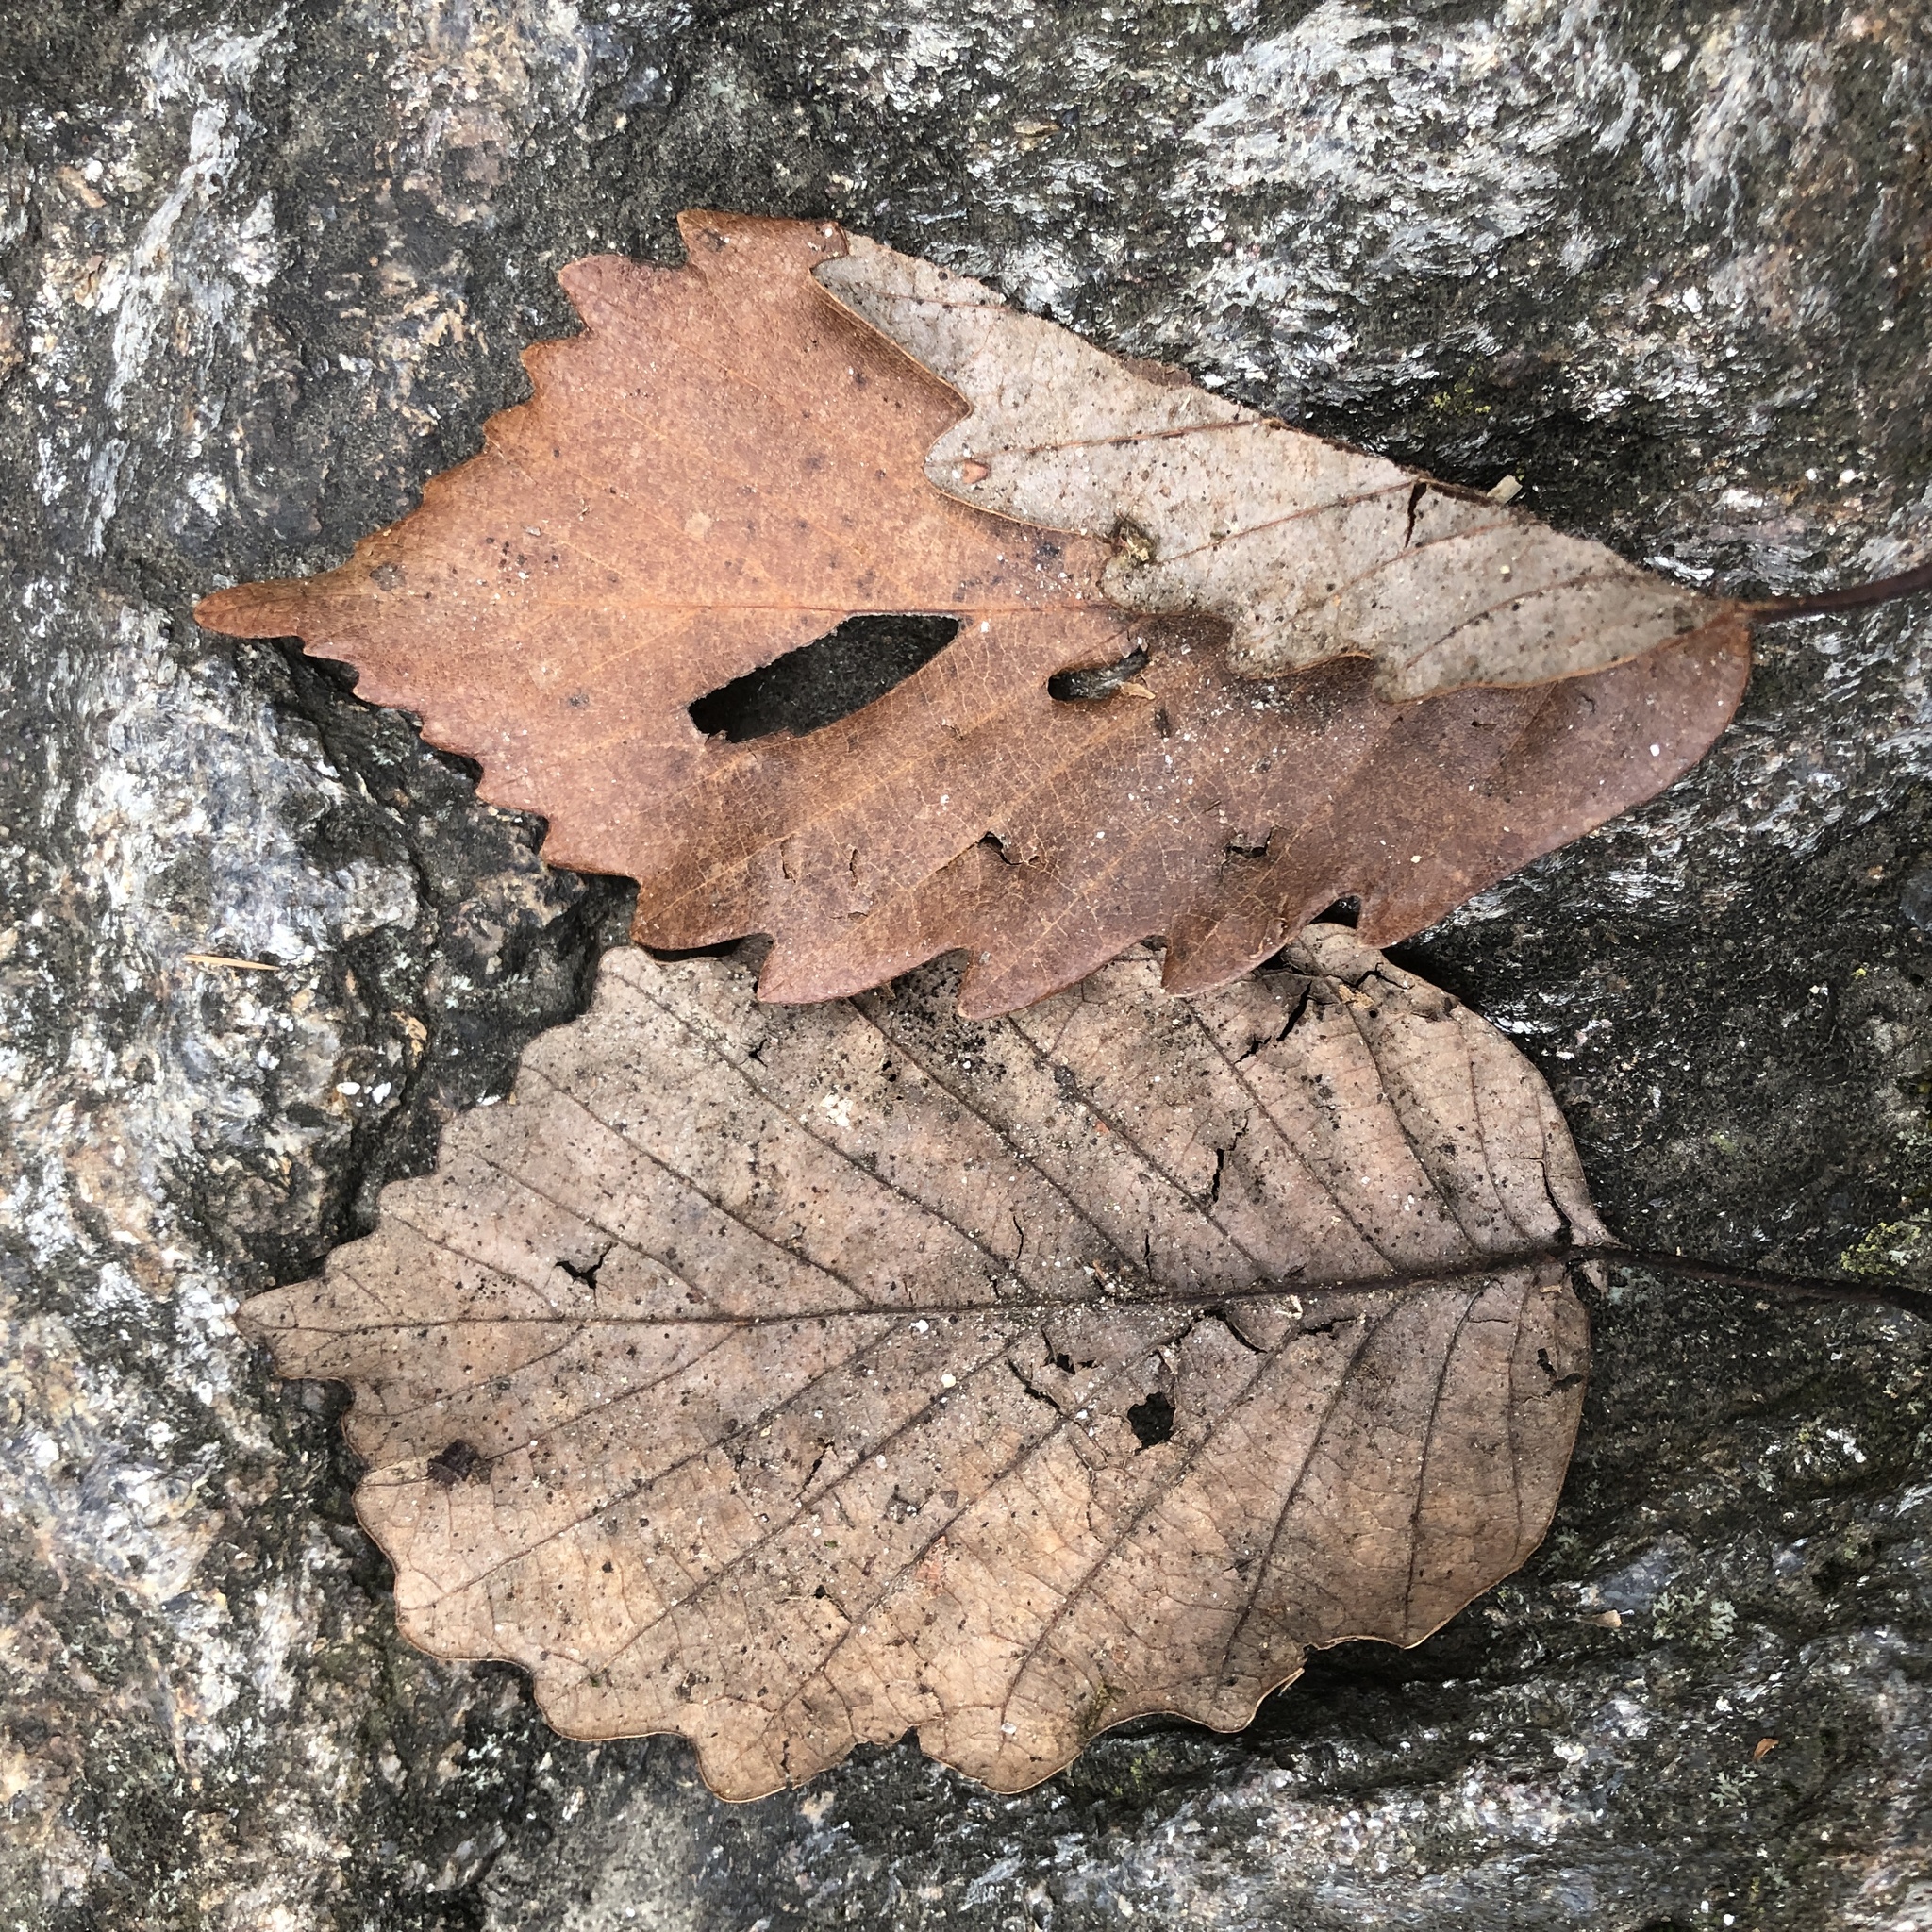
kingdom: Plantae
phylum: Tracheophyta
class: Magnoliopsida
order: Fagales
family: Fagaceae
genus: Quercus
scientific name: Quercus montana
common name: Chestnut oak
